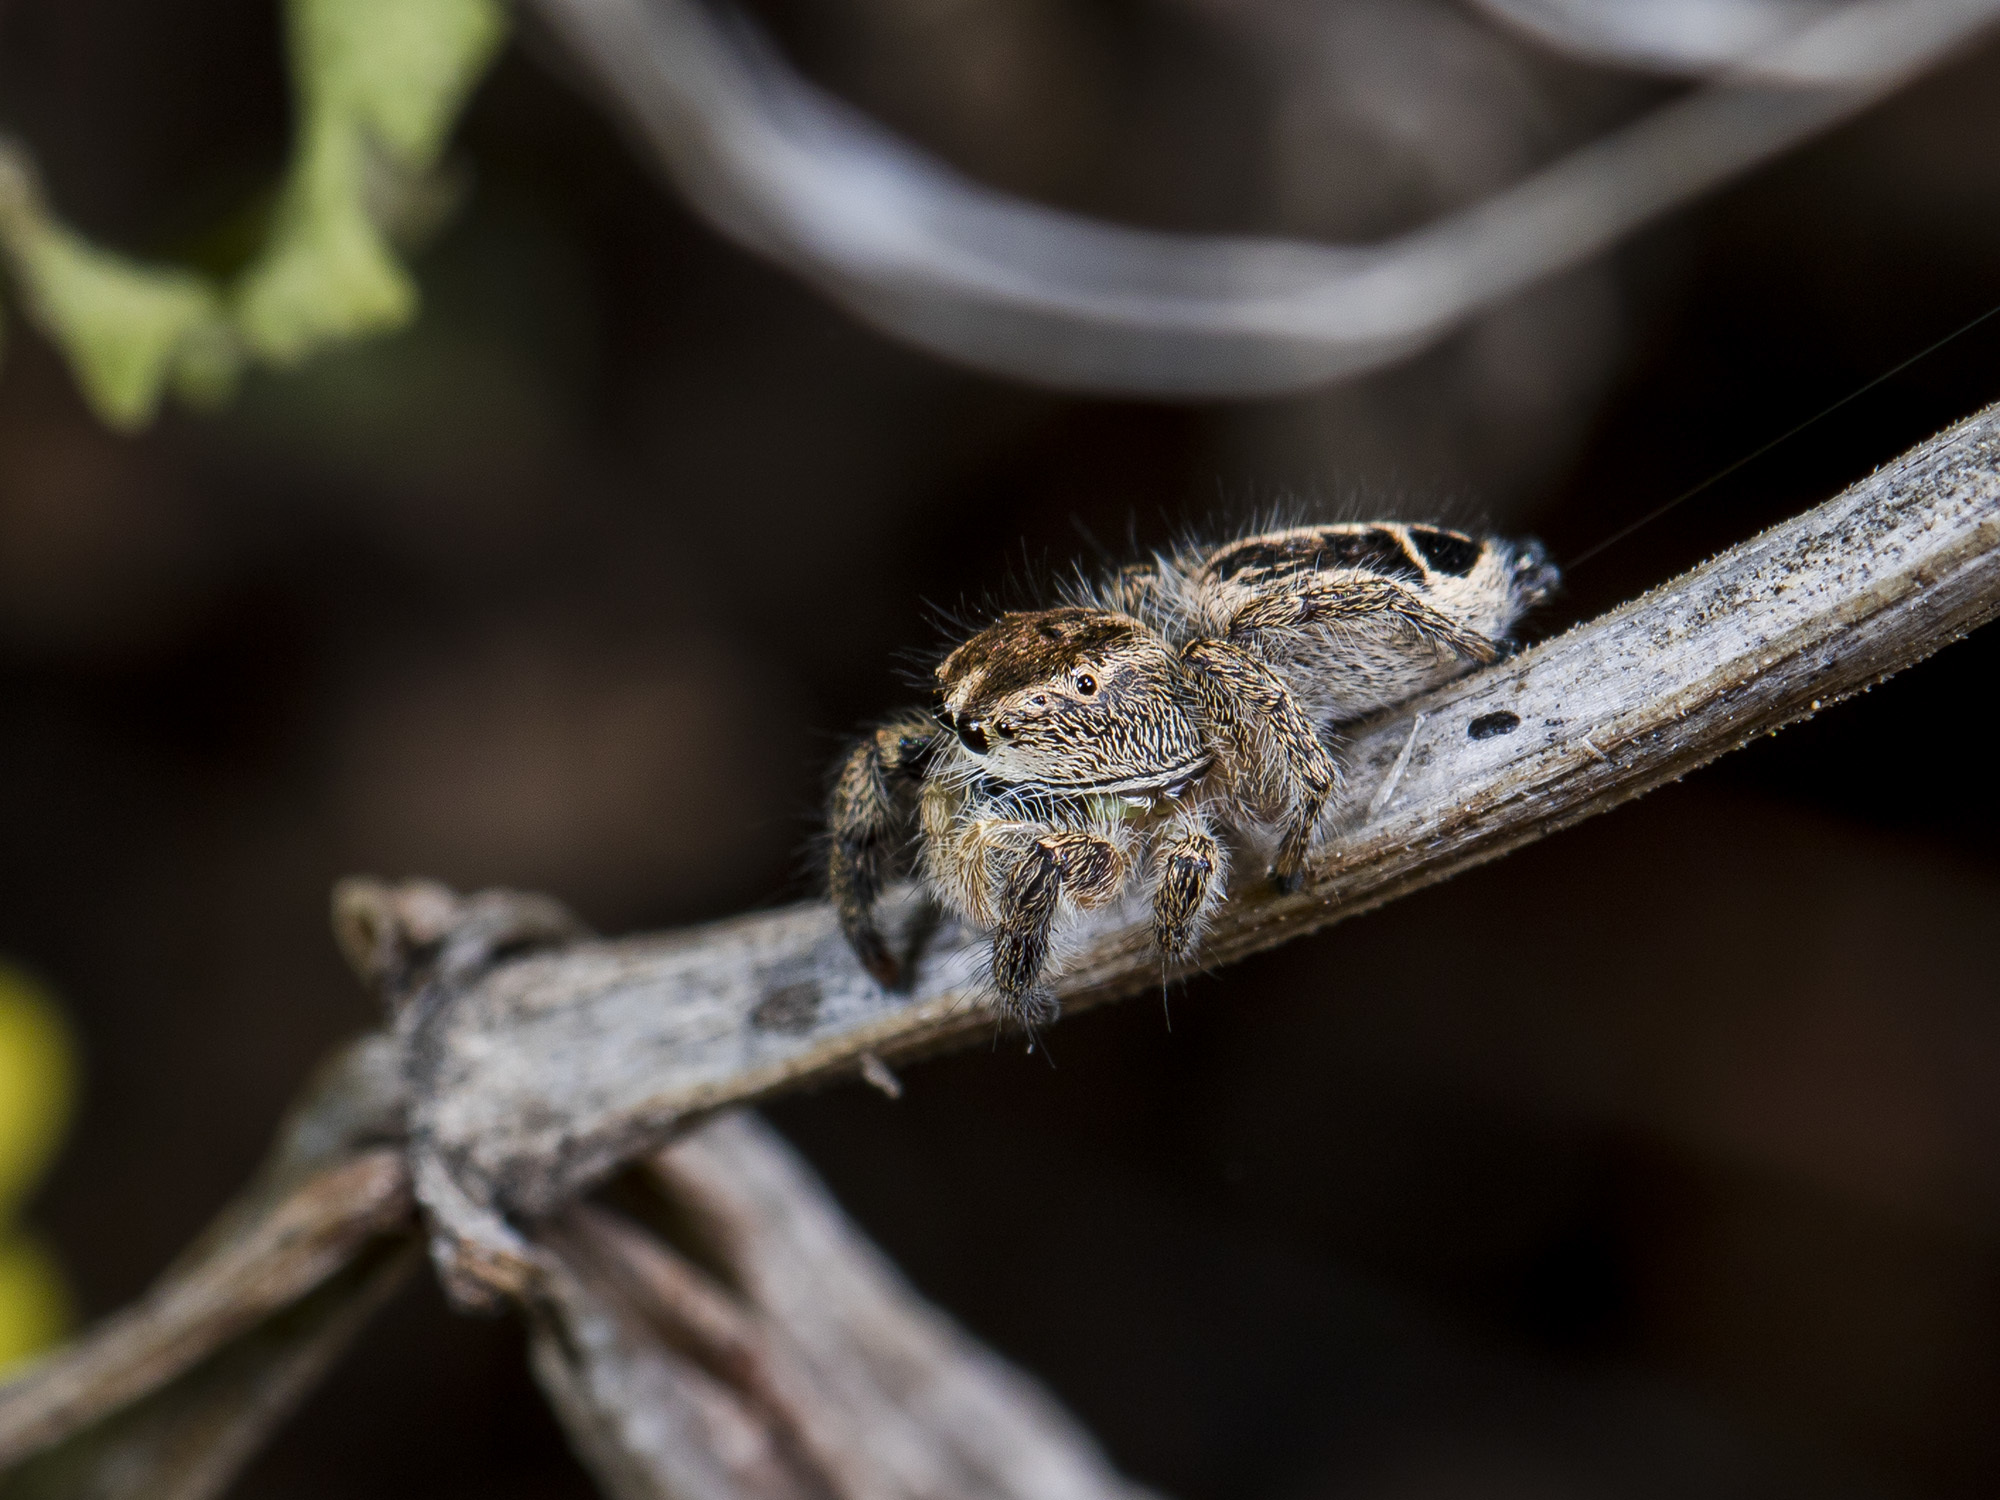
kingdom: Animalia
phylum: Arthropoda
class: Arachnida
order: Araneae
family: Salticidae
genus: Pellenes
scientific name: Pellenes sibiricus
